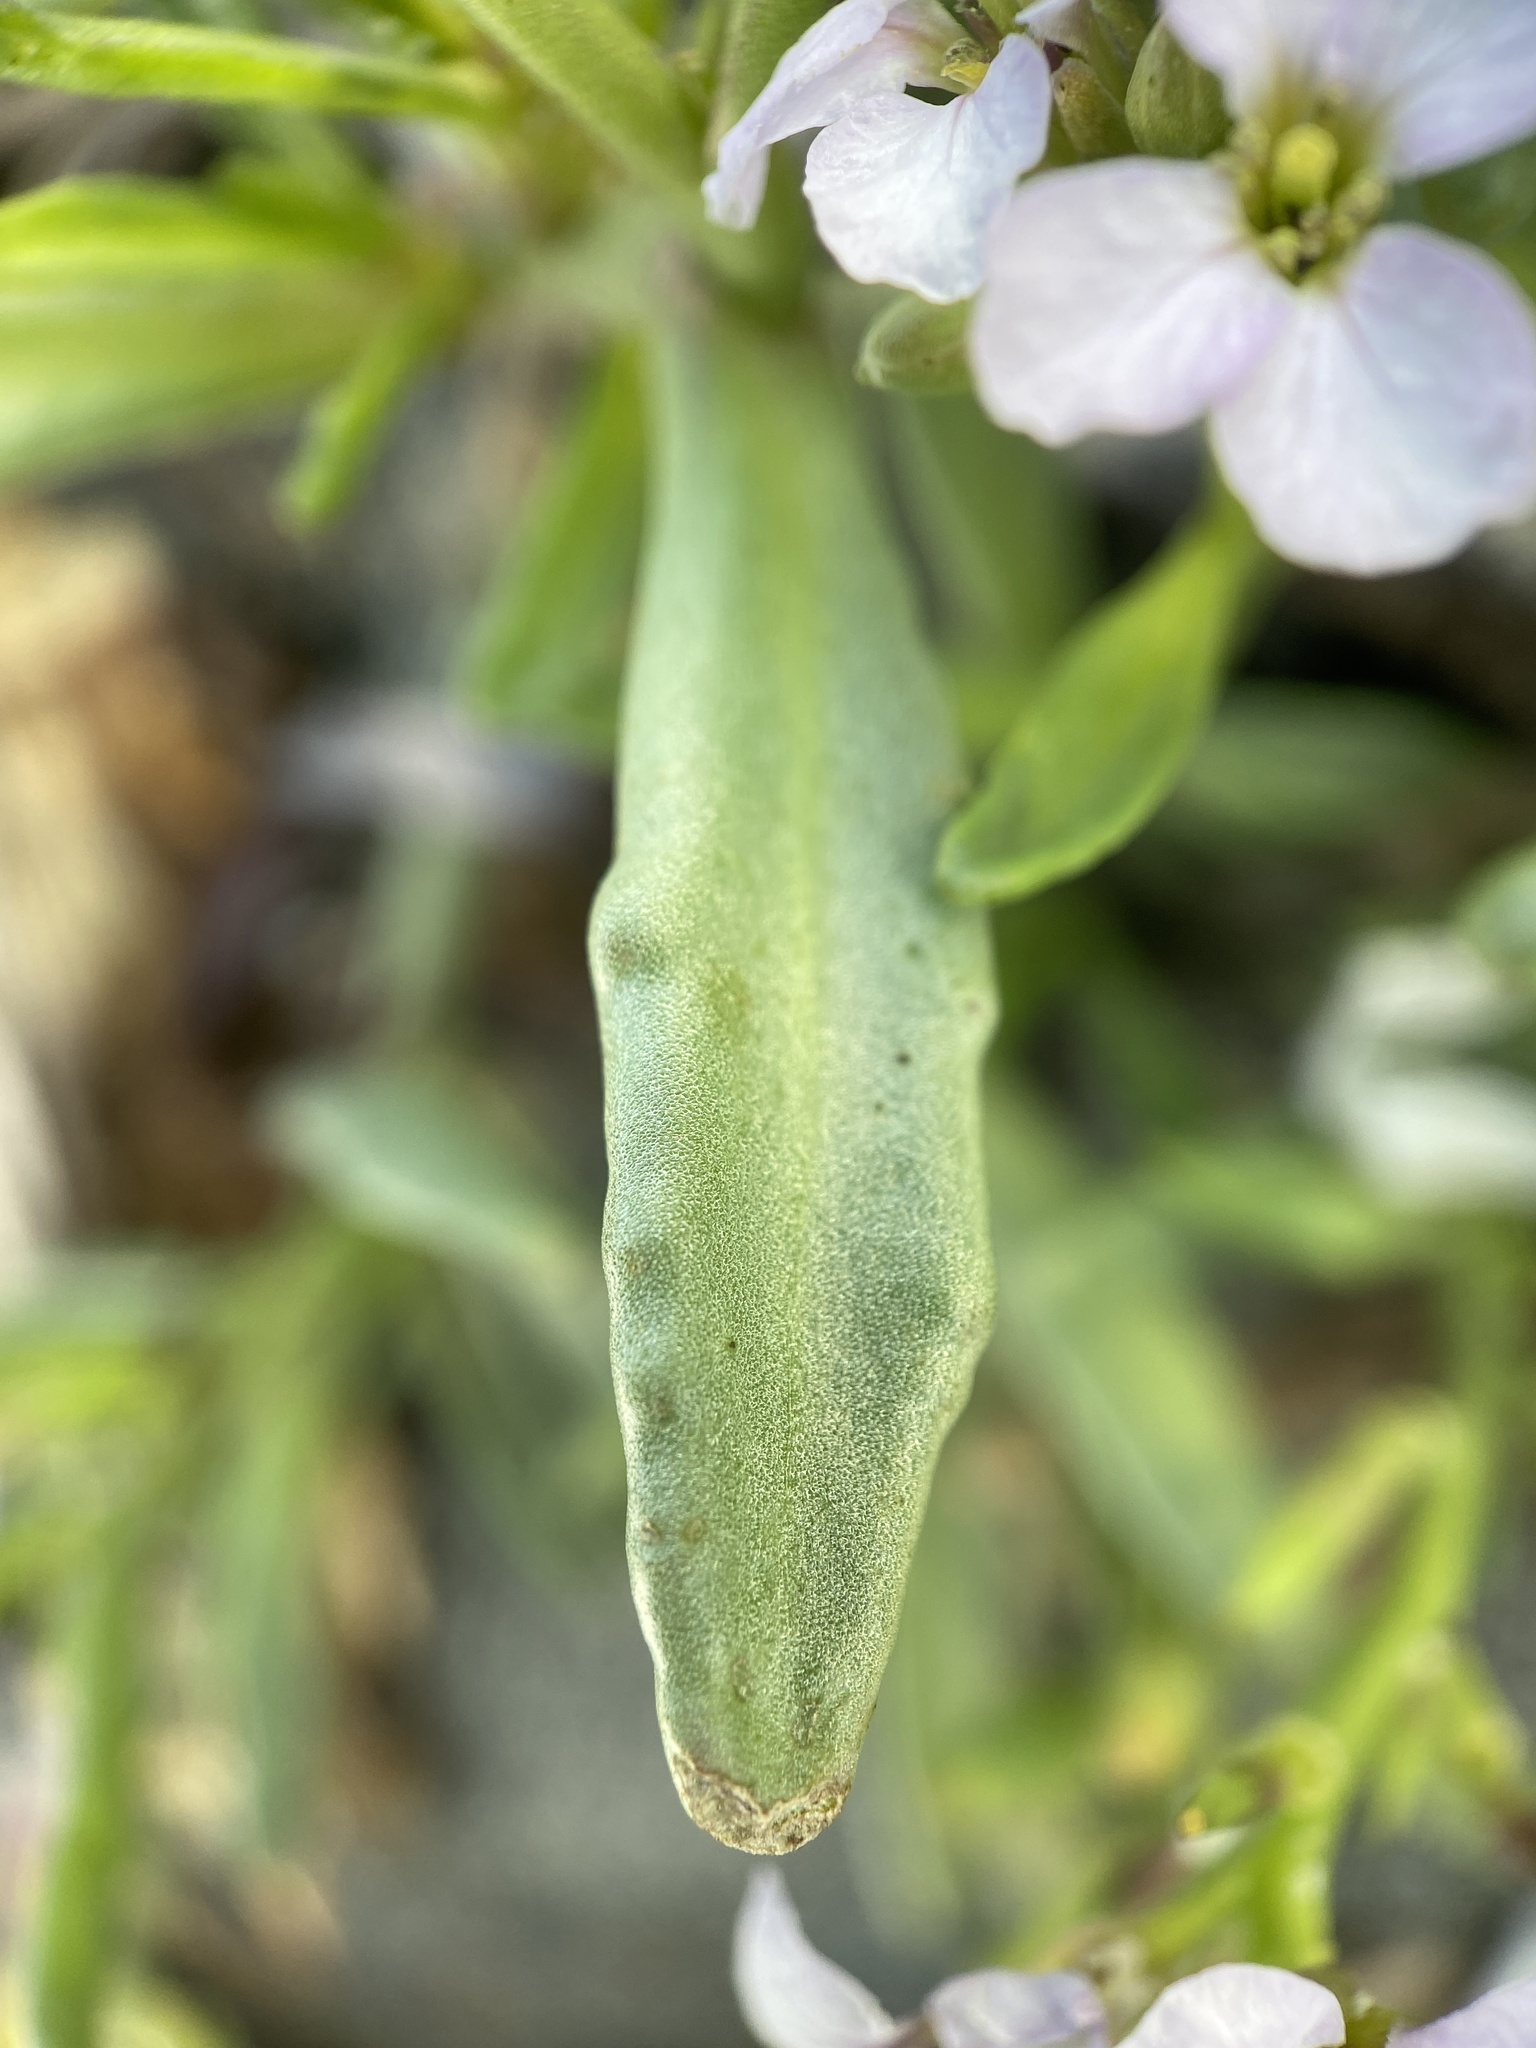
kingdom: Plantae
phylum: Tracheophyta
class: Magnoliopsida
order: Brassicales
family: Brassicaceae
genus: Cakile
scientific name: Cakile maritima
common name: Sea rocket
